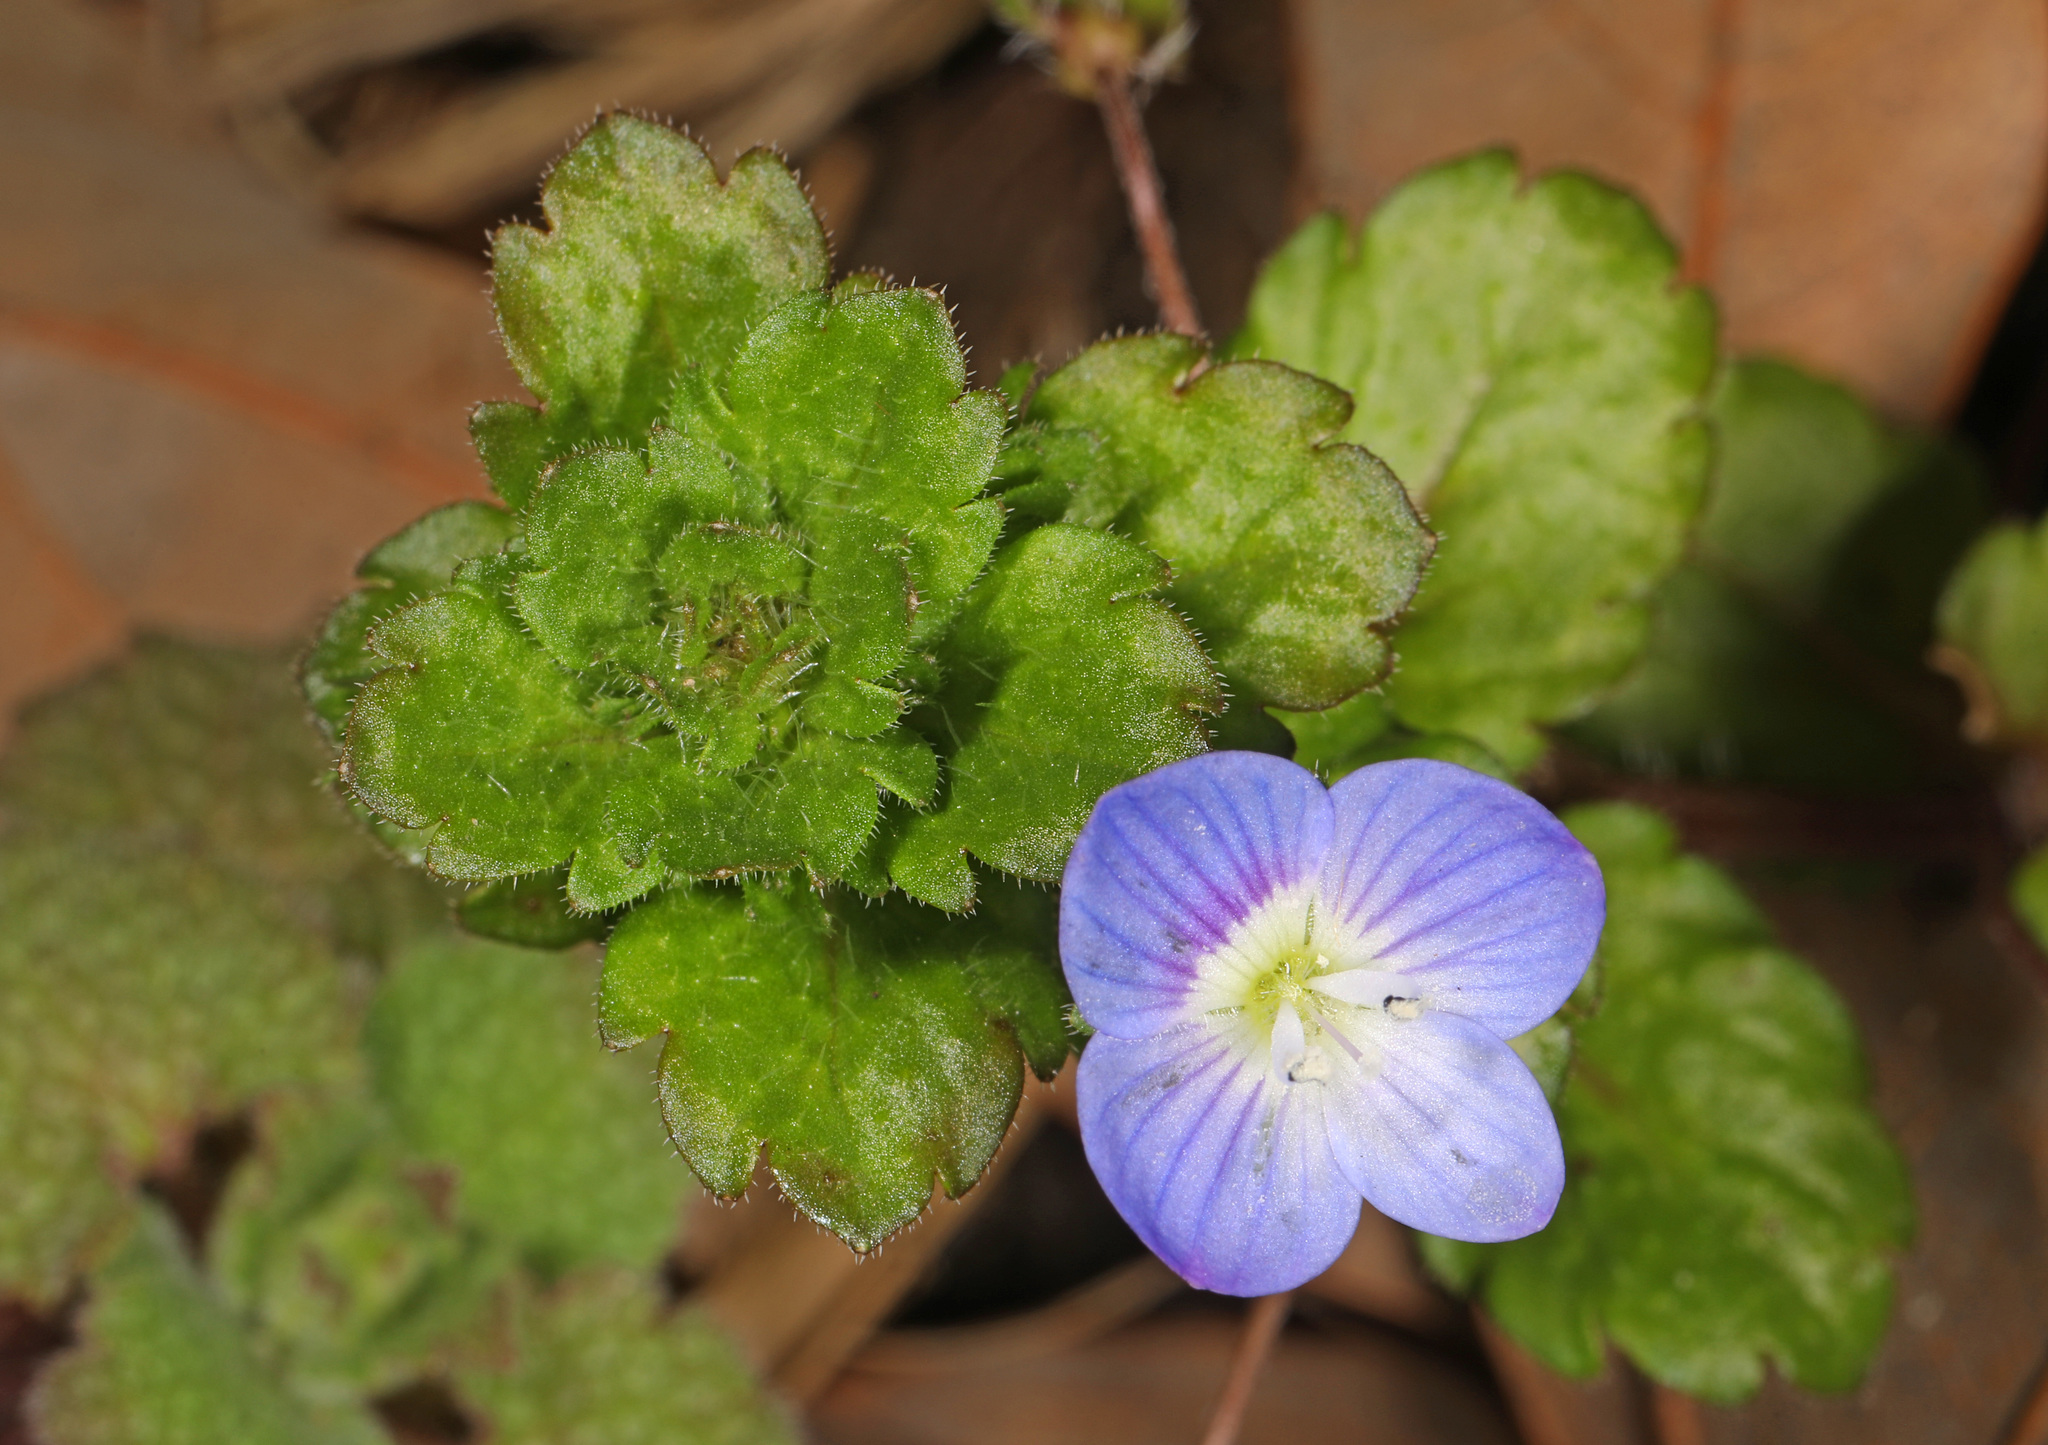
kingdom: Plantae
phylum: Tracheophyta
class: Magnoliopsida
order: Lamiales
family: Plantaginaceae
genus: Veronica
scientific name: Veronica persica
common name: Common field-speedwell
